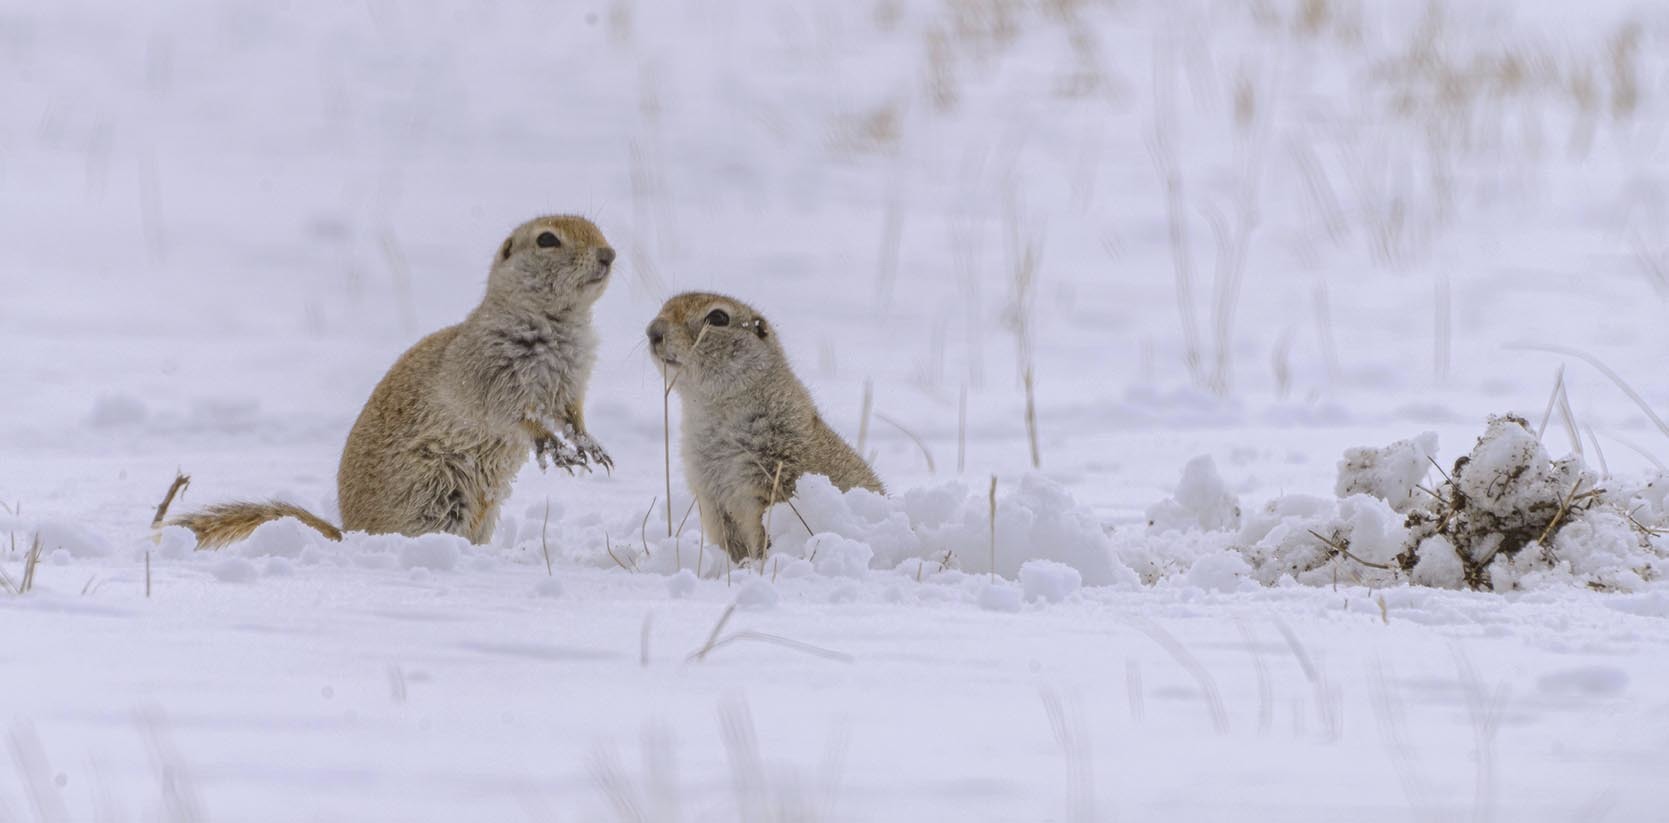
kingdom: Animalia
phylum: Chordata
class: Mammalia
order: Rodentia
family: Sciuridae
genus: Urocitellus
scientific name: Urocitellus richardsonii
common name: Richardson's ground squirrel
